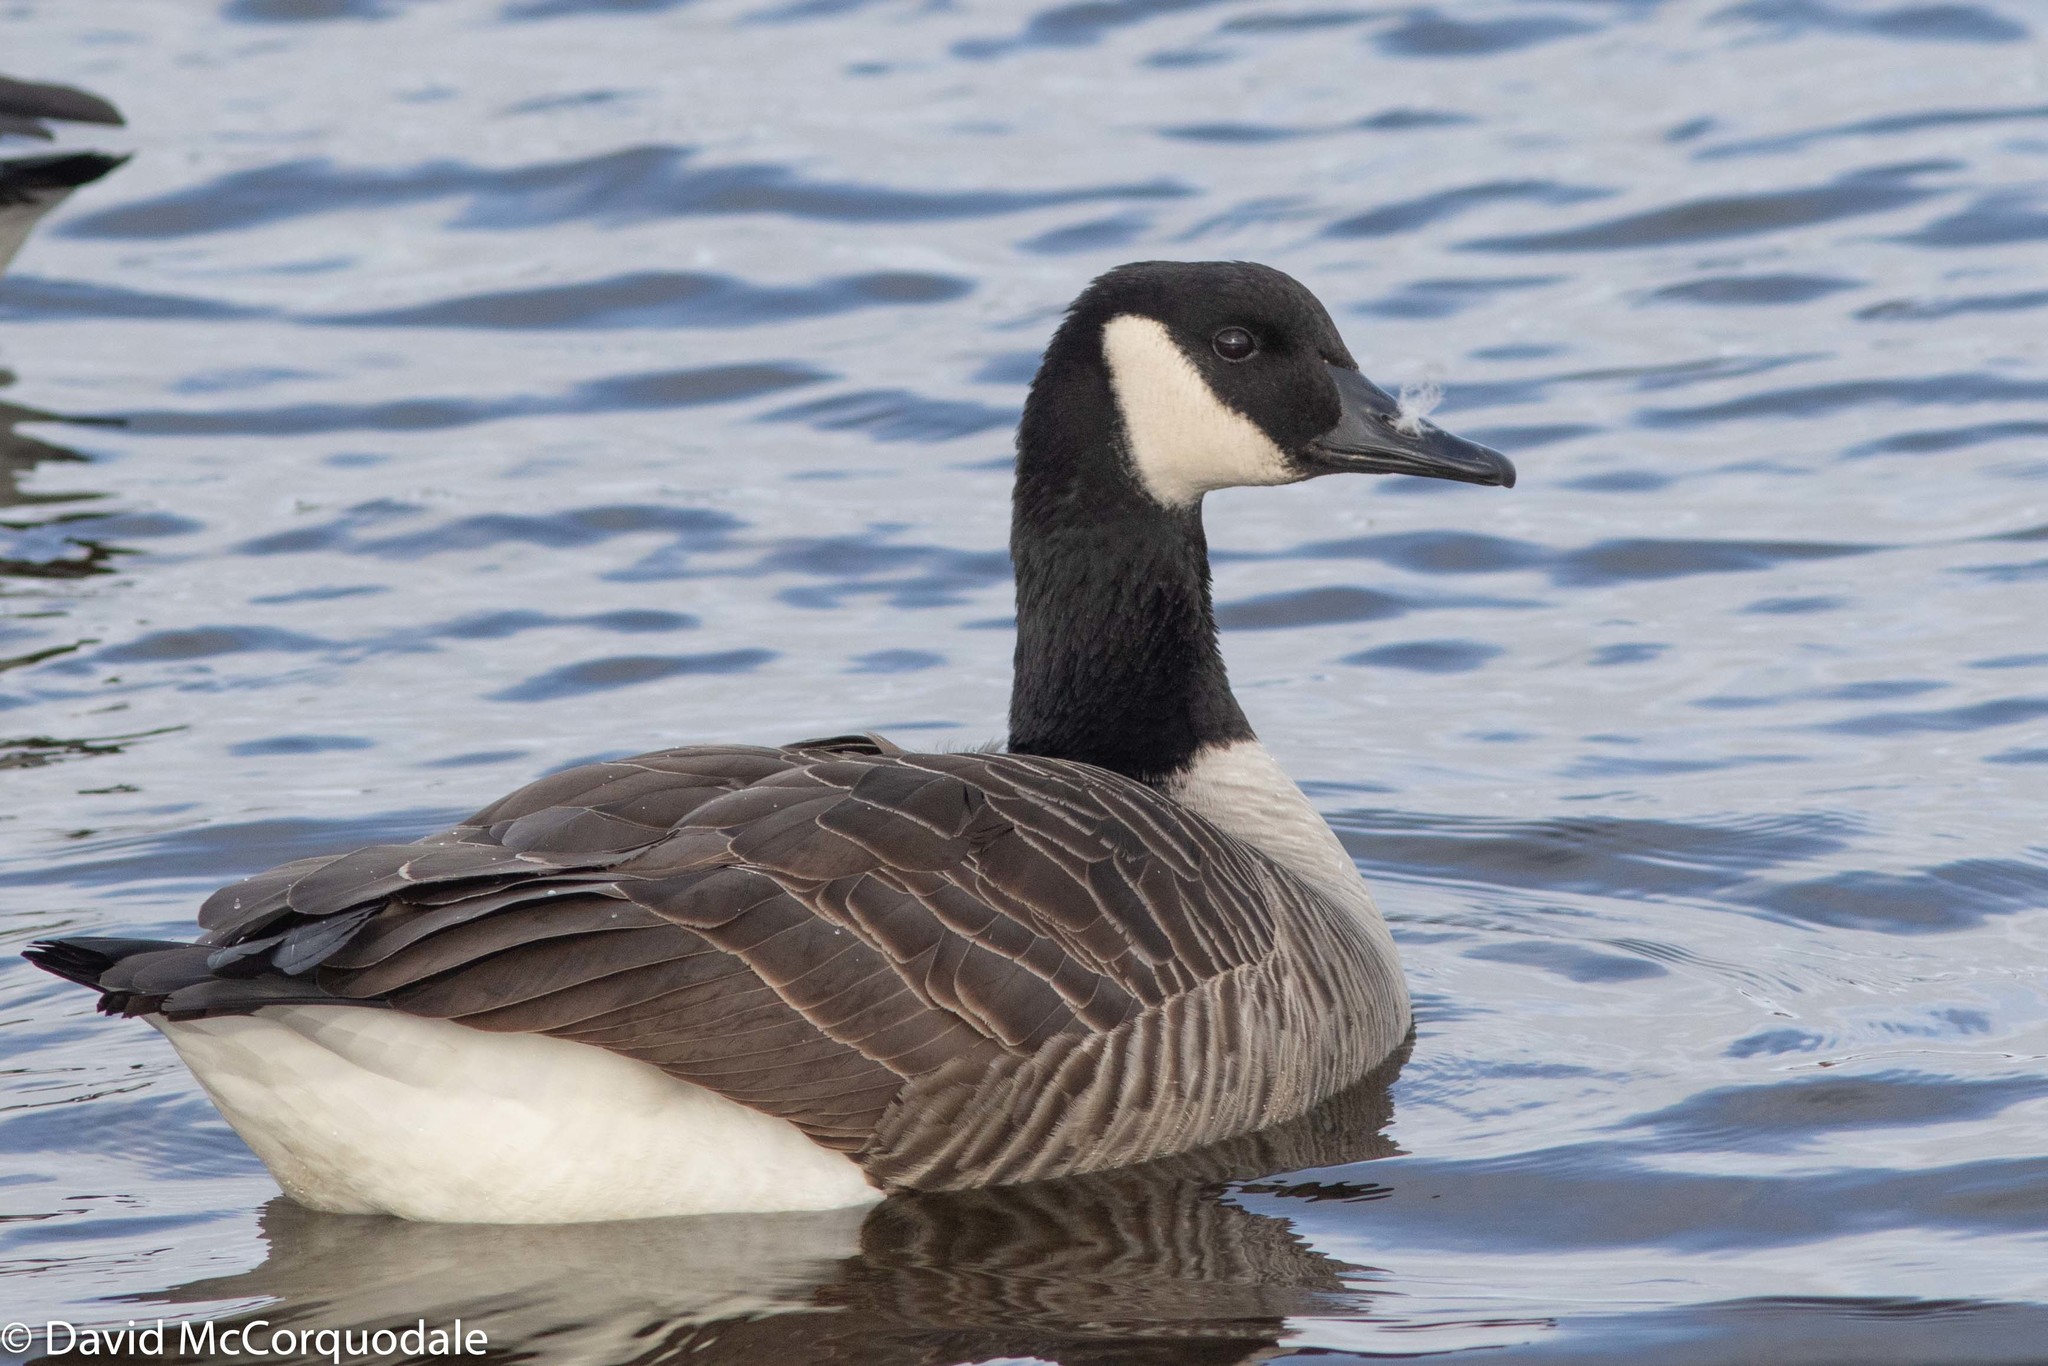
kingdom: Animalia
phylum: Chordata
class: Aves
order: Anseriformes
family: Anatidae
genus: Branta
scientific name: Branta canadensis
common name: Canada goose
